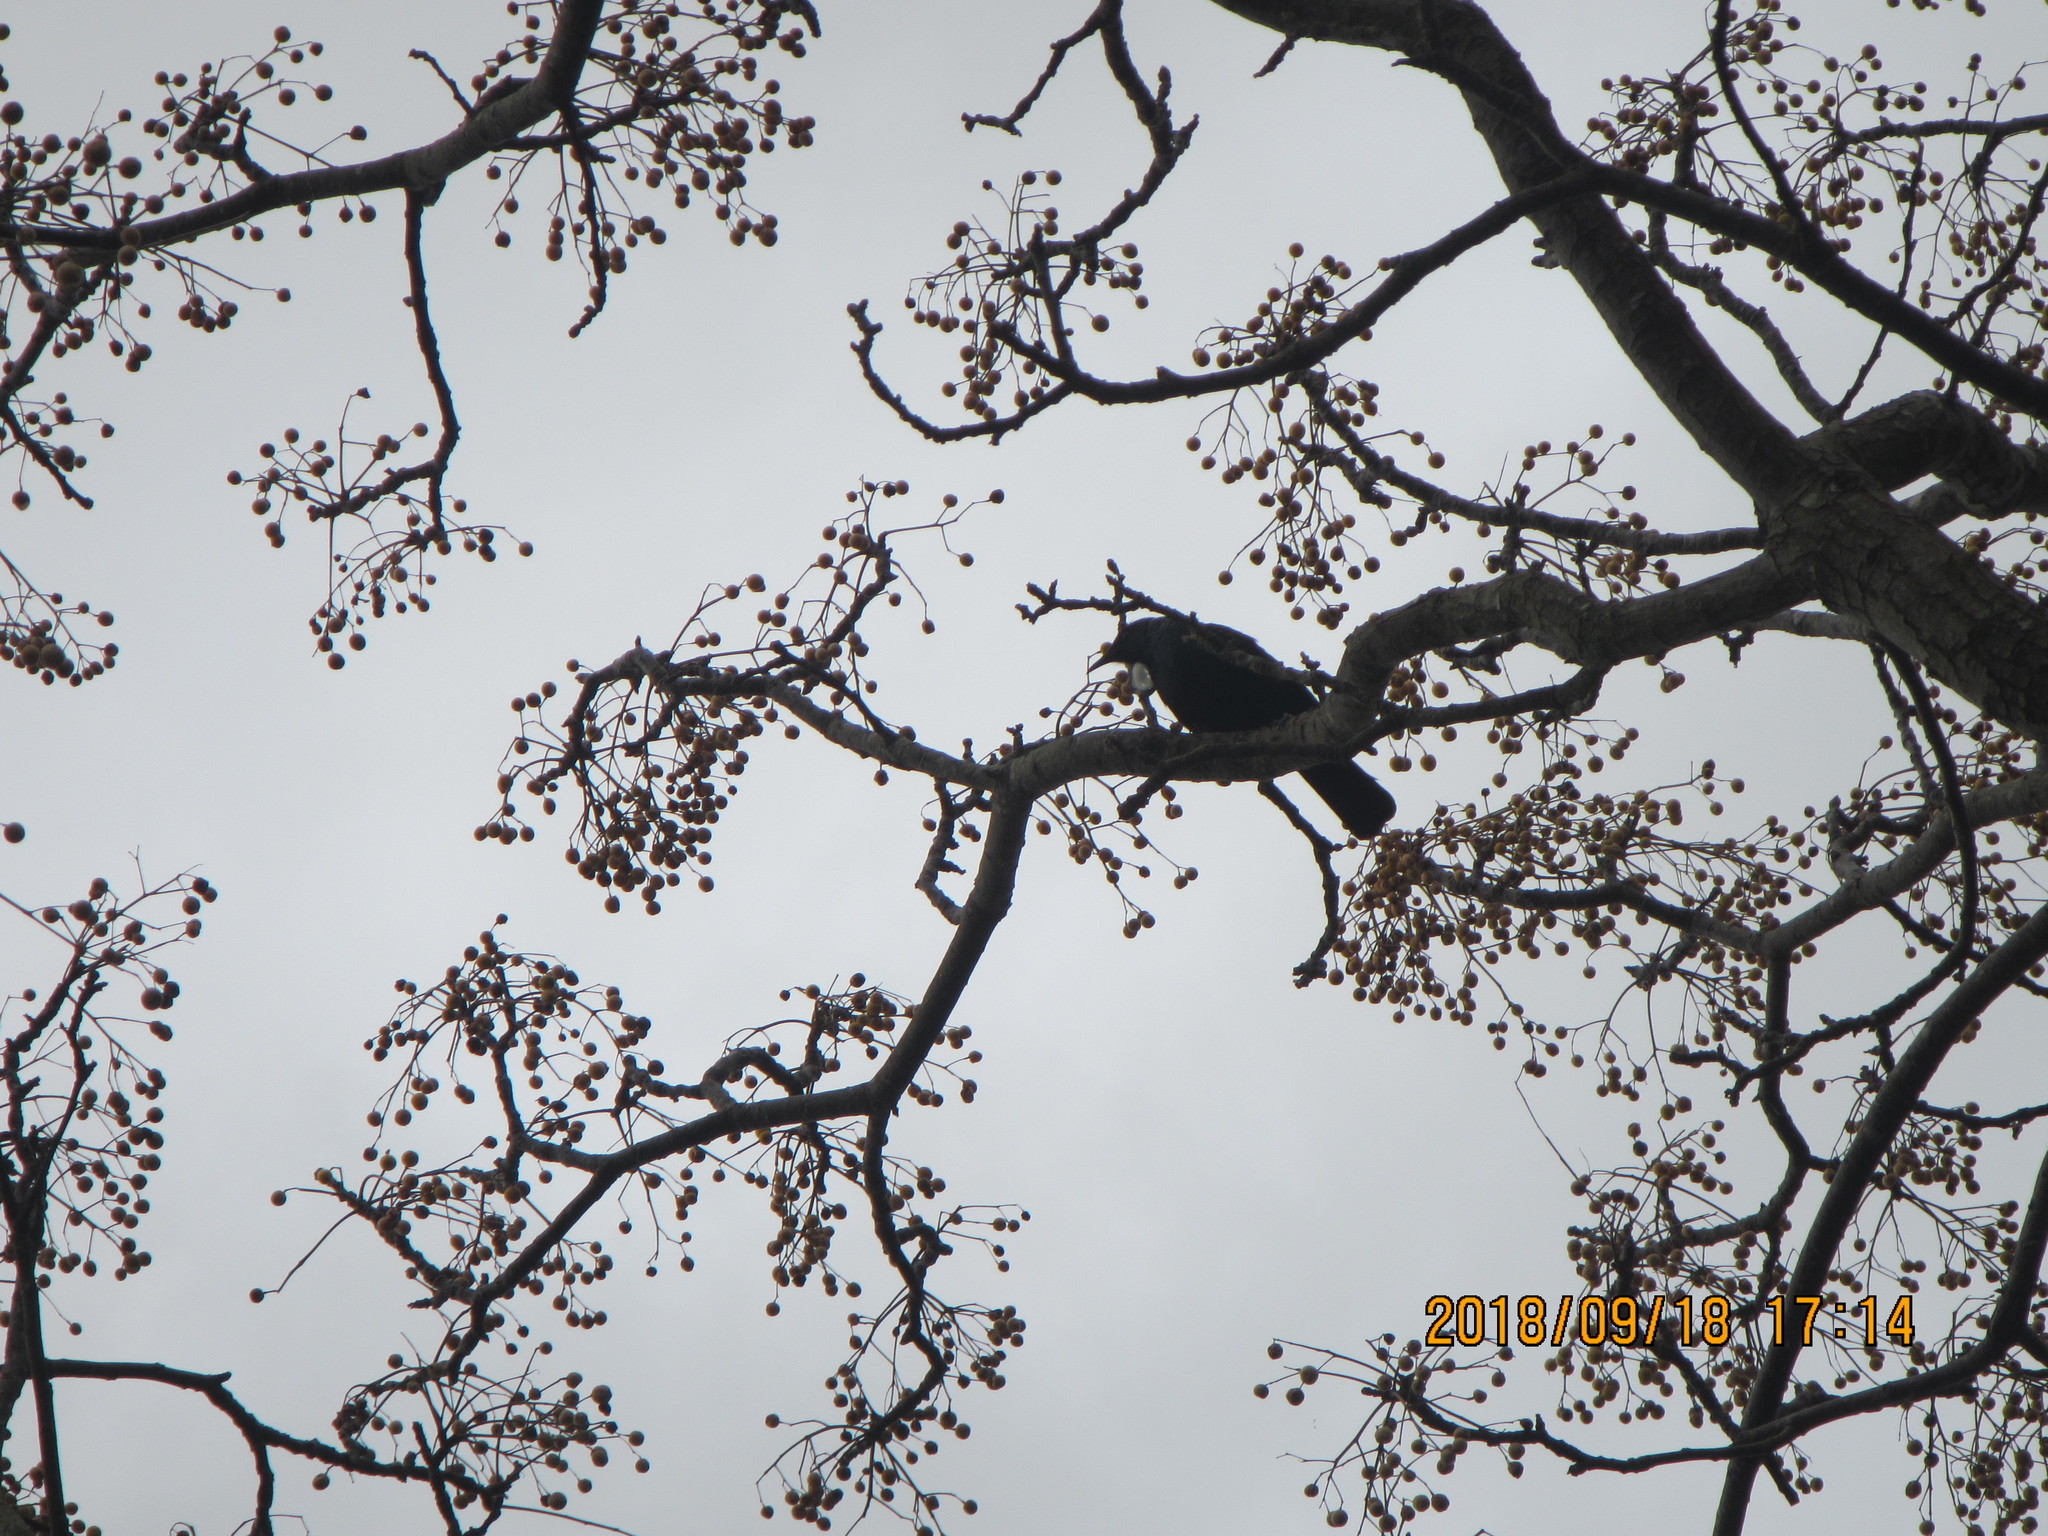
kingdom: Animalia
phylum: Chordata
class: Aves
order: Passeriformes
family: Meliphagidae
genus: Prosthemadera
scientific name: Prosthemadera novaeseelandiae
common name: Tui
